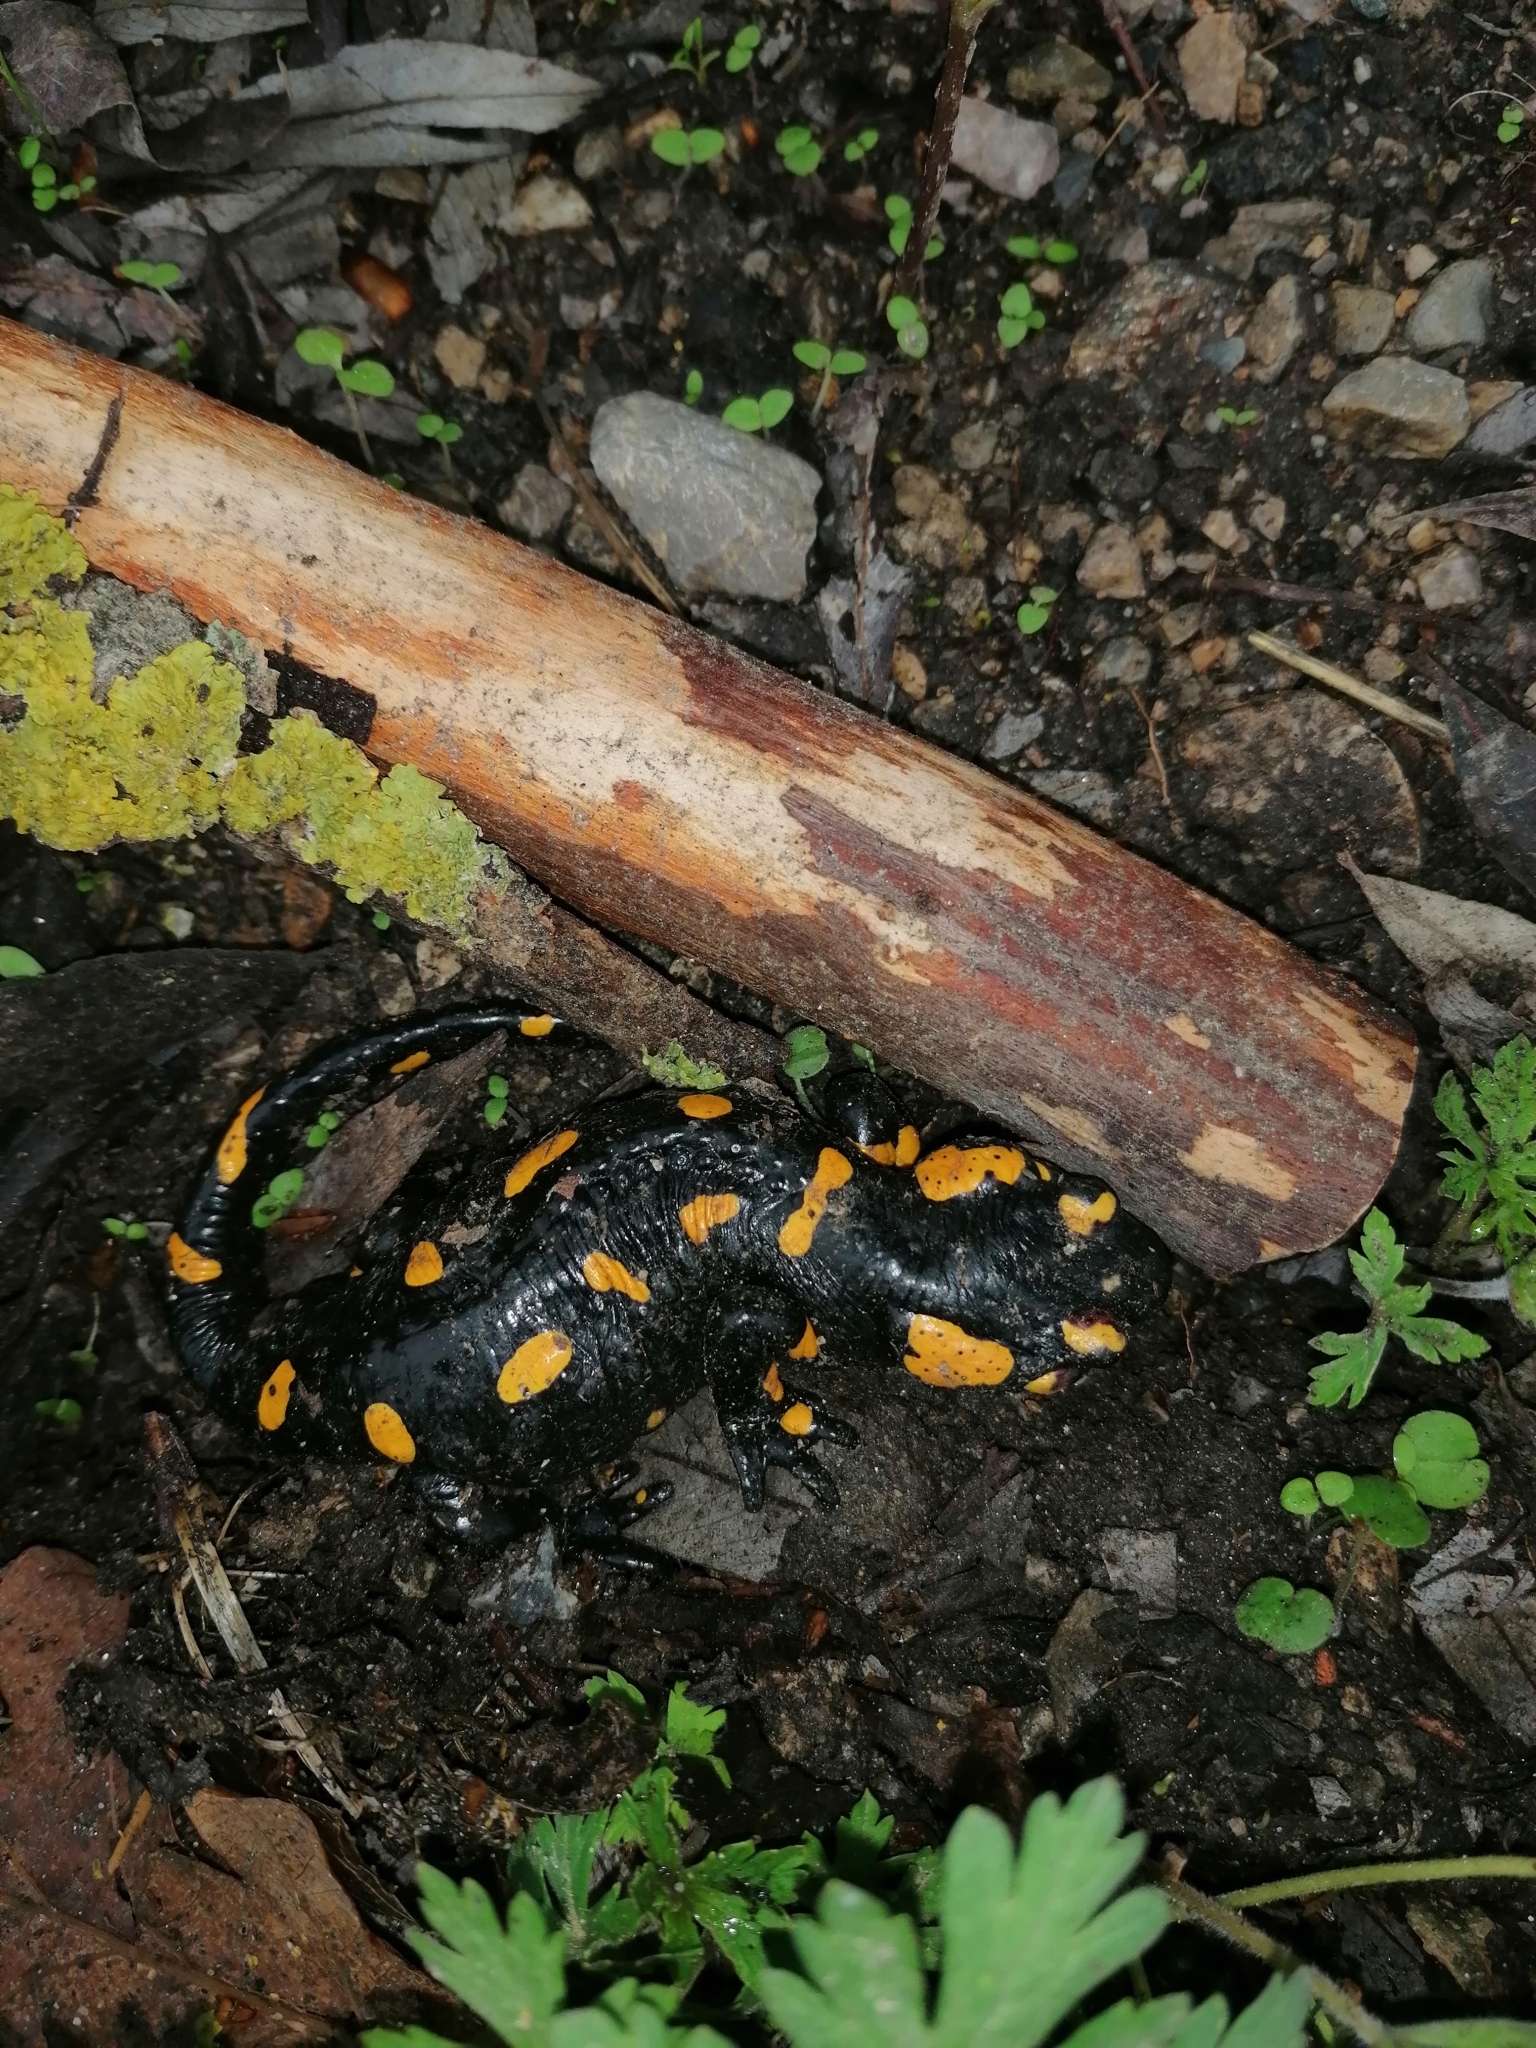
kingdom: Animalia
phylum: Chordata
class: Amphibia
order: Caudata
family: Salamandridae
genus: Salamandra
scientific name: Salamandra salamandra
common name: Fire salamander
